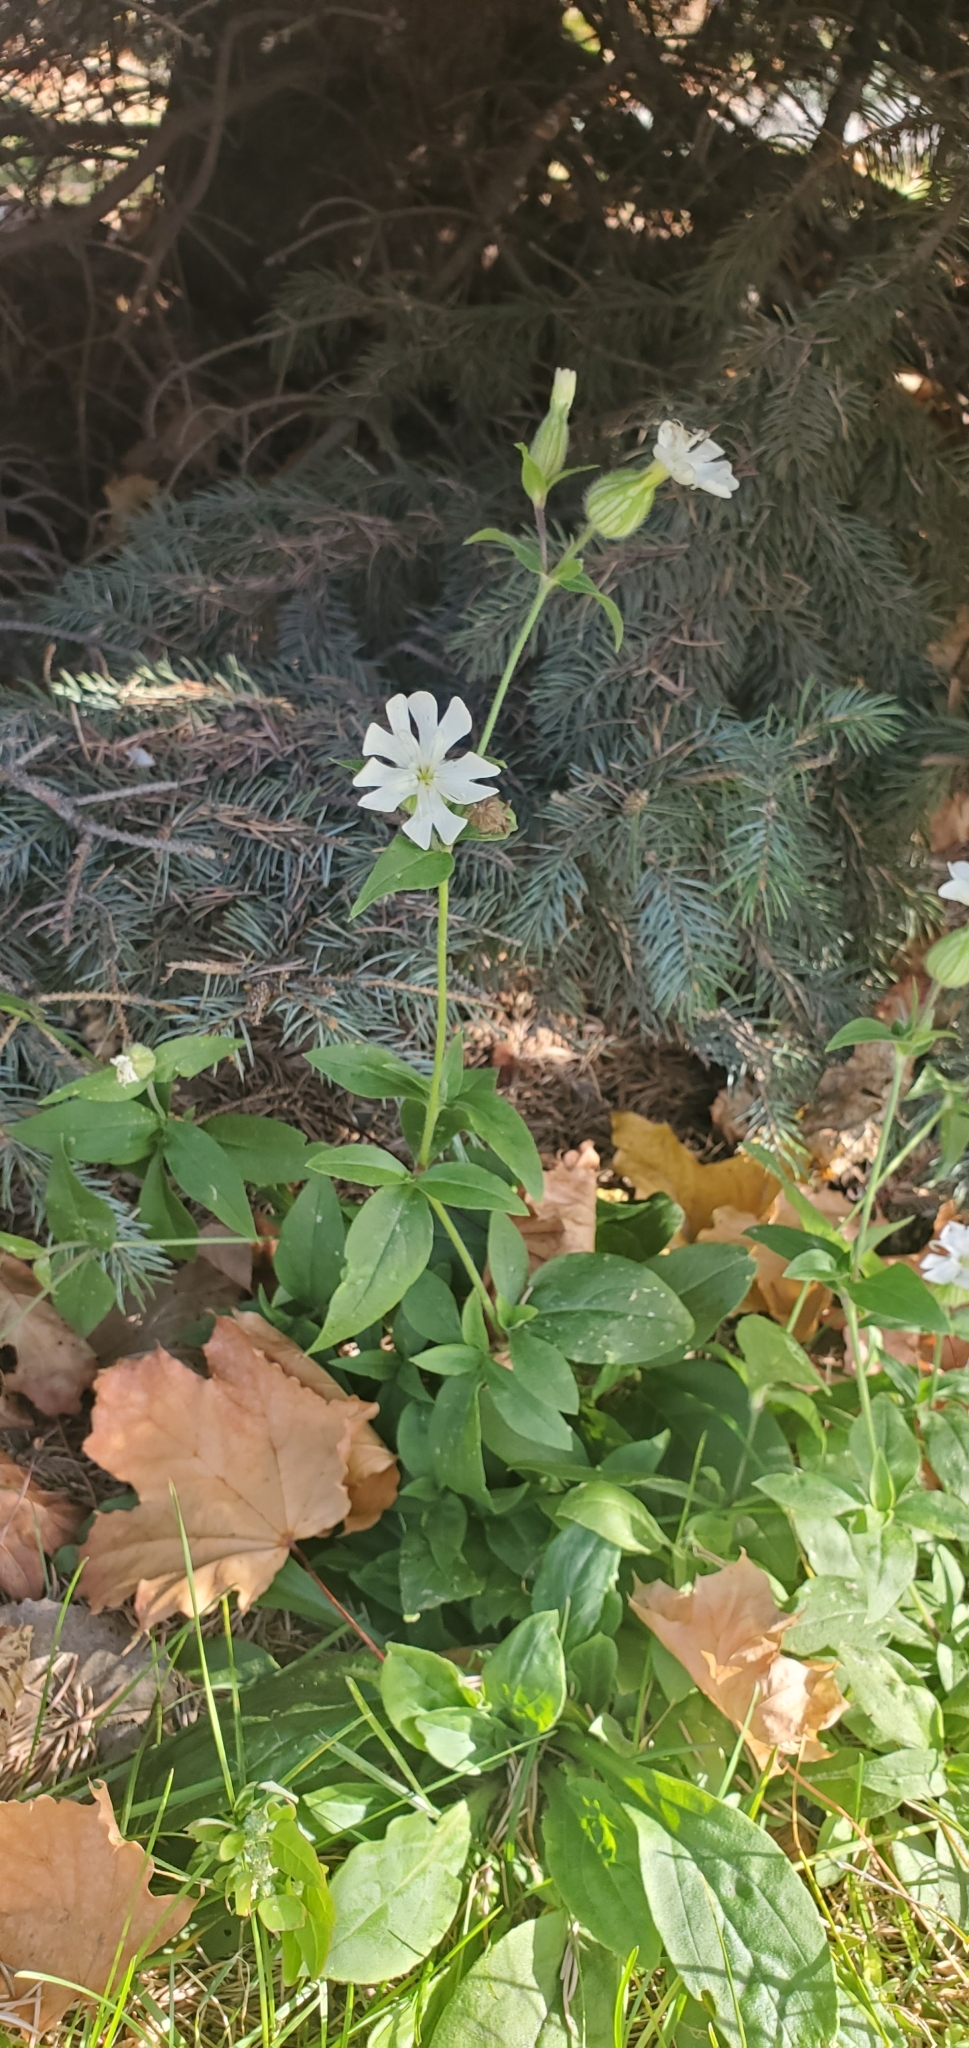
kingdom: Plantae
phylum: Tracheophyta
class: Magnoliopsida
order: Caryophyllales
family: Caryophyllaceae
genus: Silene
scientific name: Silene latifolia
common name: White campion
